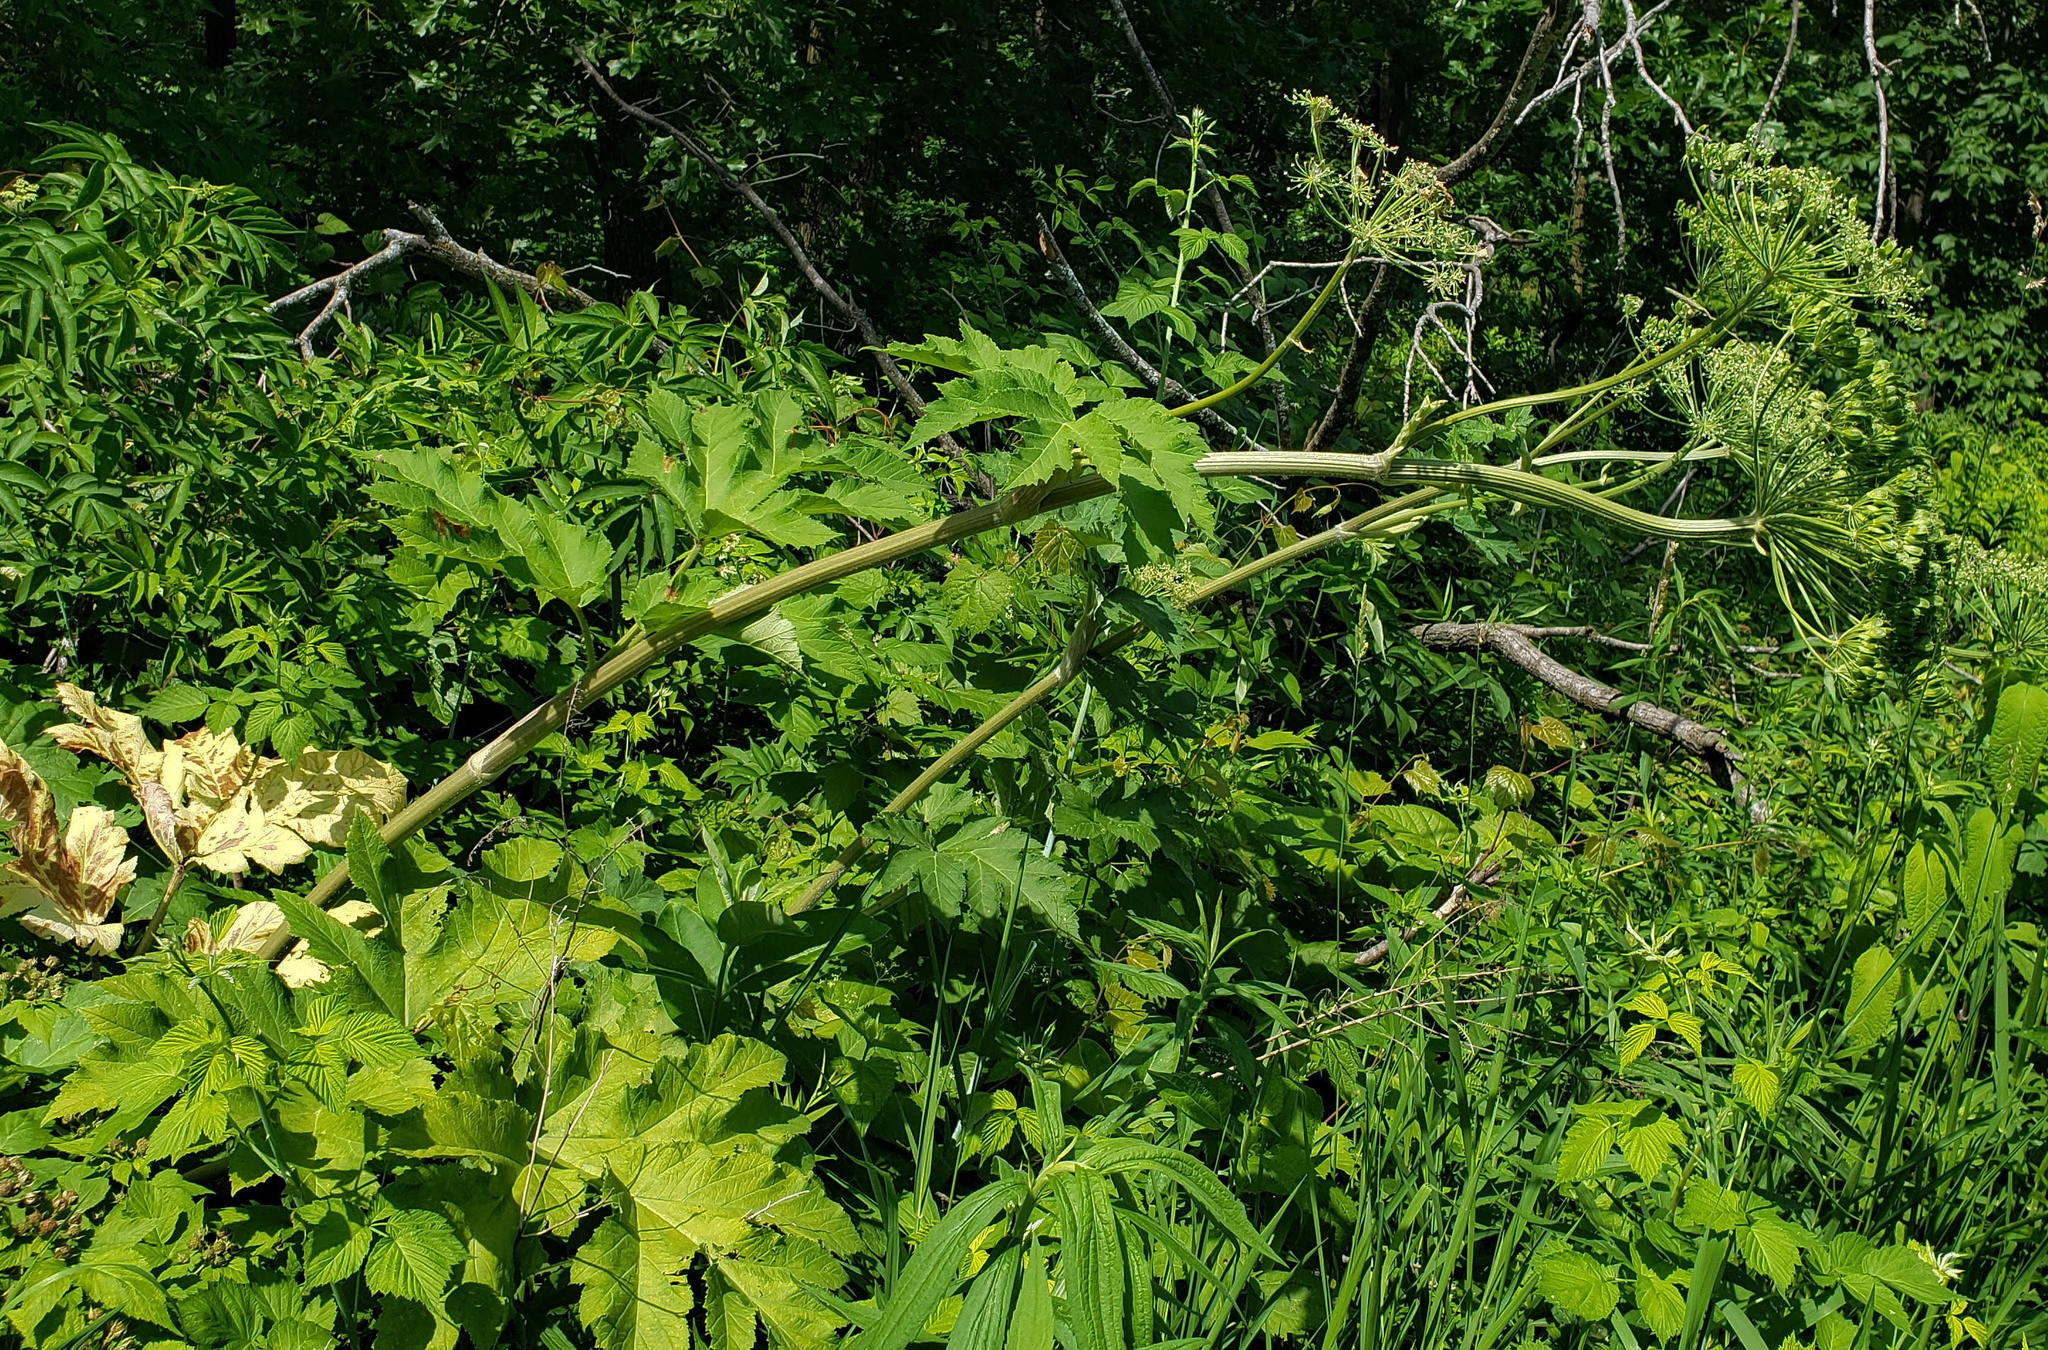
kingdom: Plantae
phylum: Tracheophyta
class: Magnoliopsida
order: Apiales
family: Apiaceae
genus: Heracleum
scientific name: Heracleum maximum
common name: American cow parsnip
